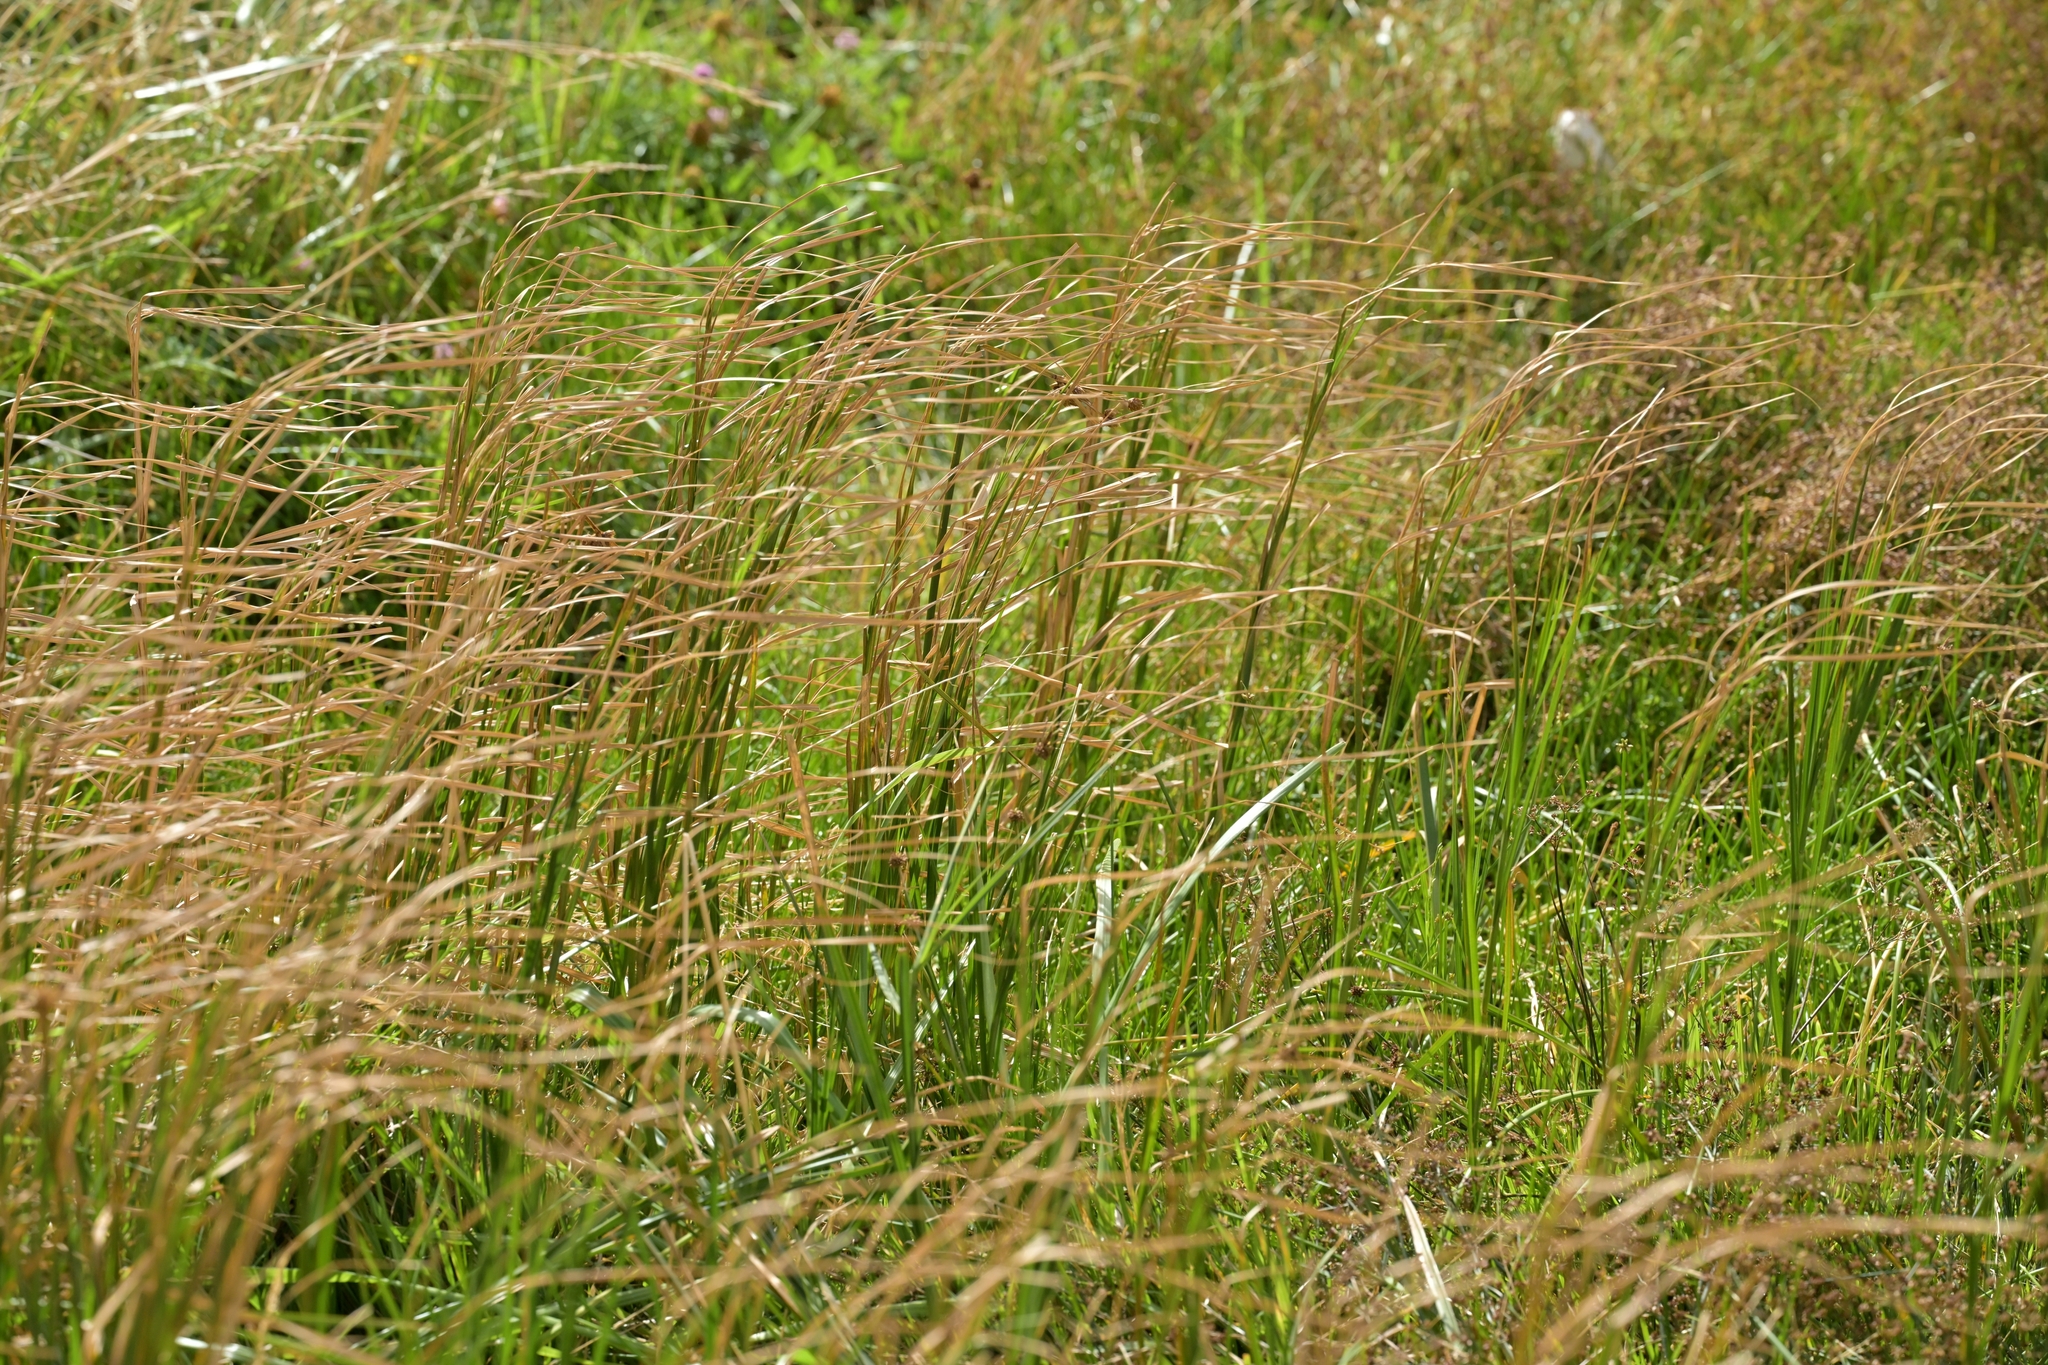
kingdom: Plantae
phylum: Tracheophyta
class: Liliopsida
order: Poales
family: Typhaceae
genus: Typha
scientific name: Typha orientalis
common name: Bullrush
